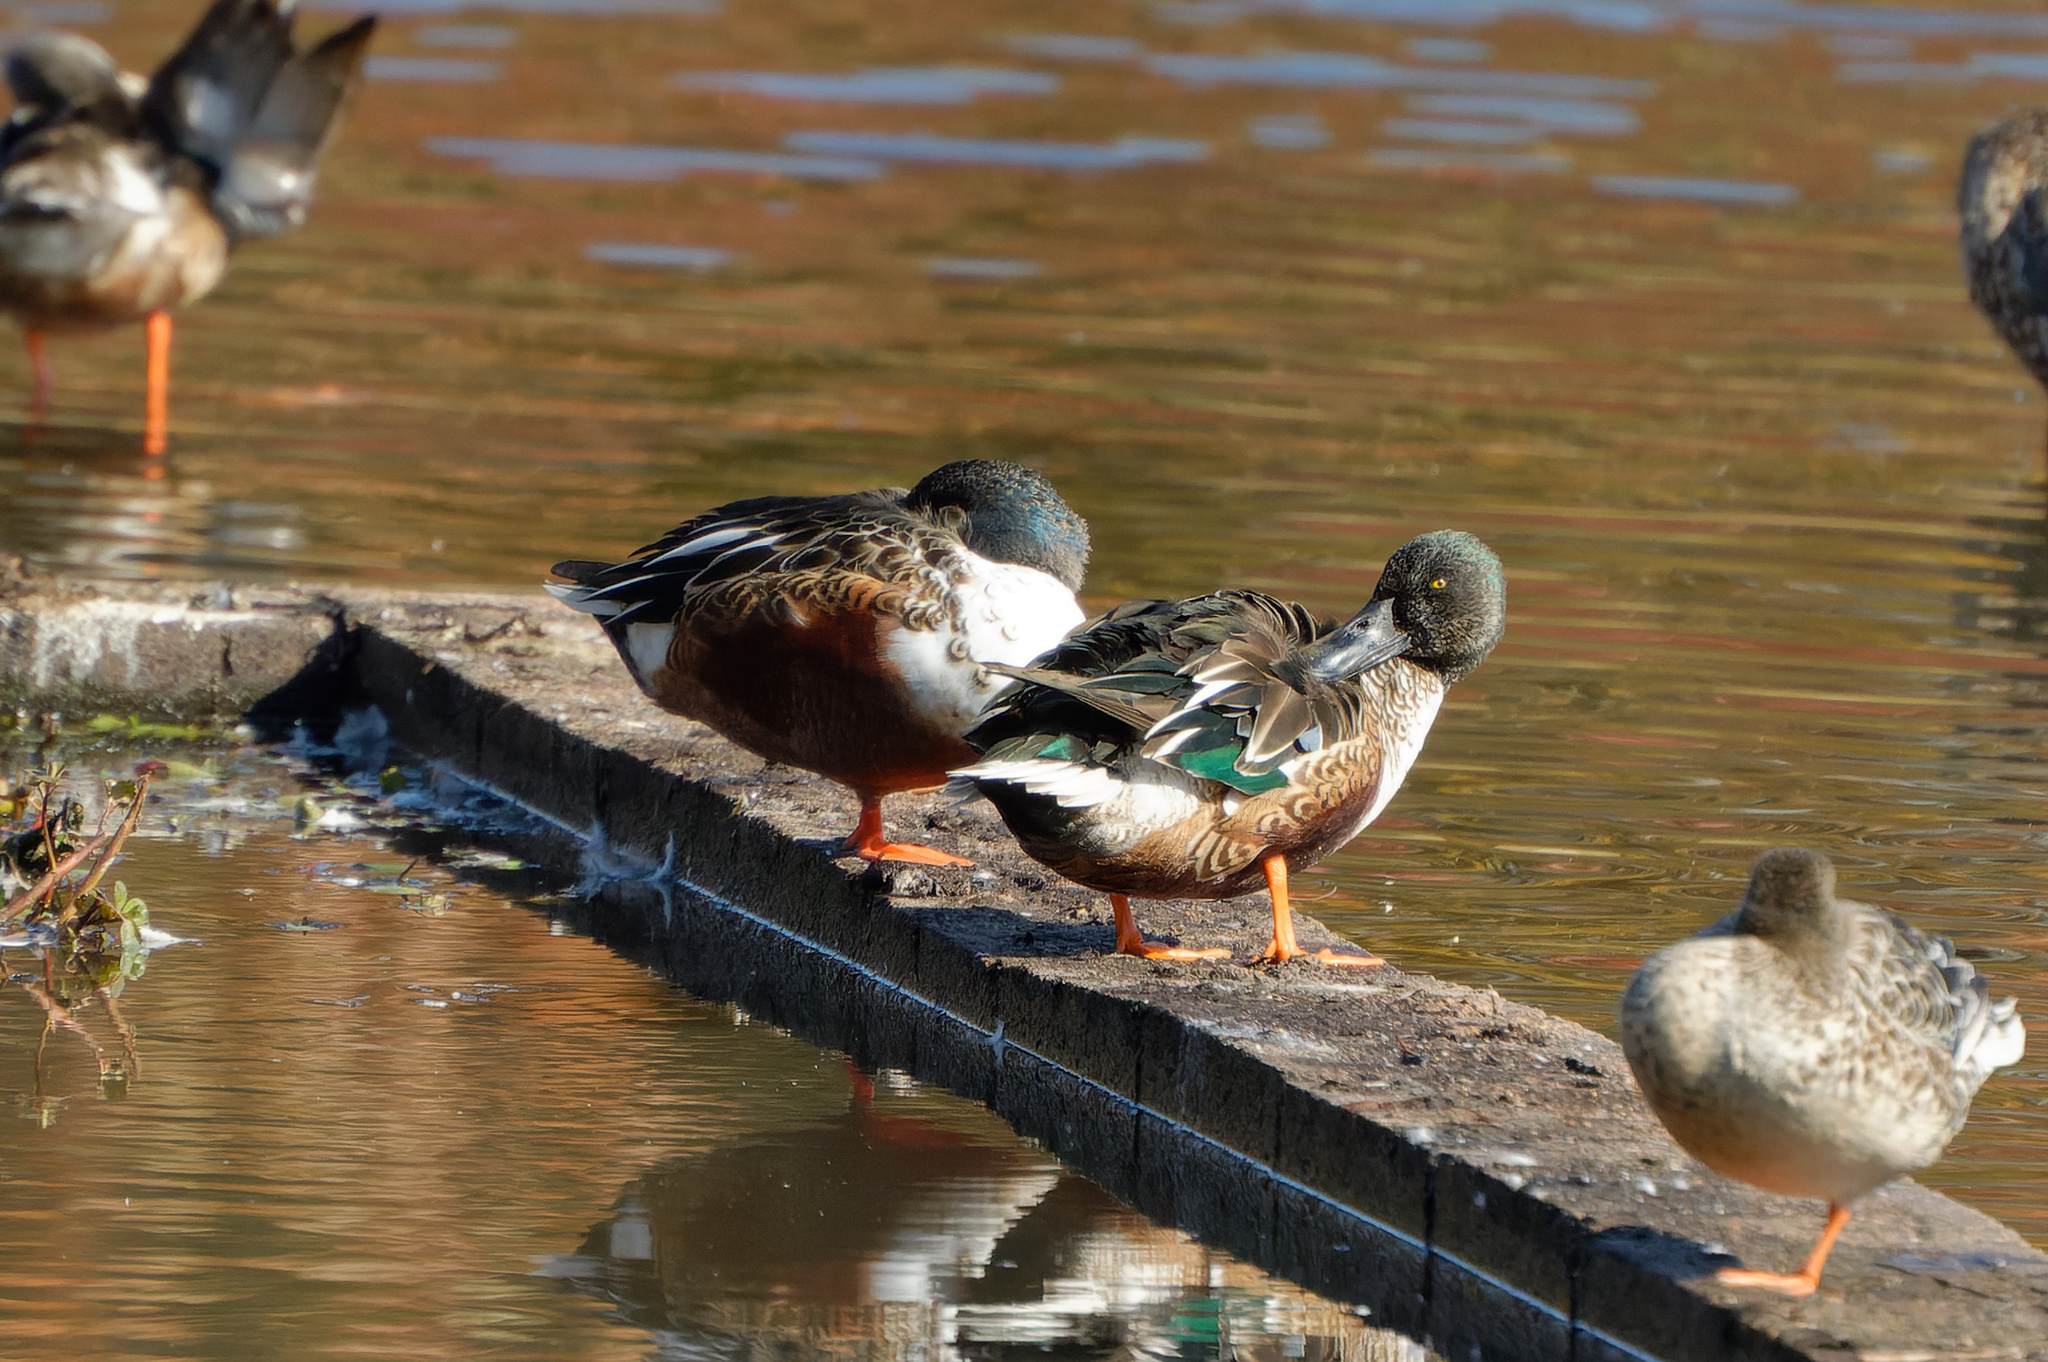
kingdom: Animalia
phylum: Chordata
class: Aves
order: Anseriformes
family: Anatidae
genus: Spatula
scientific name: Spatula clypeata
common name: Northern shoveler
